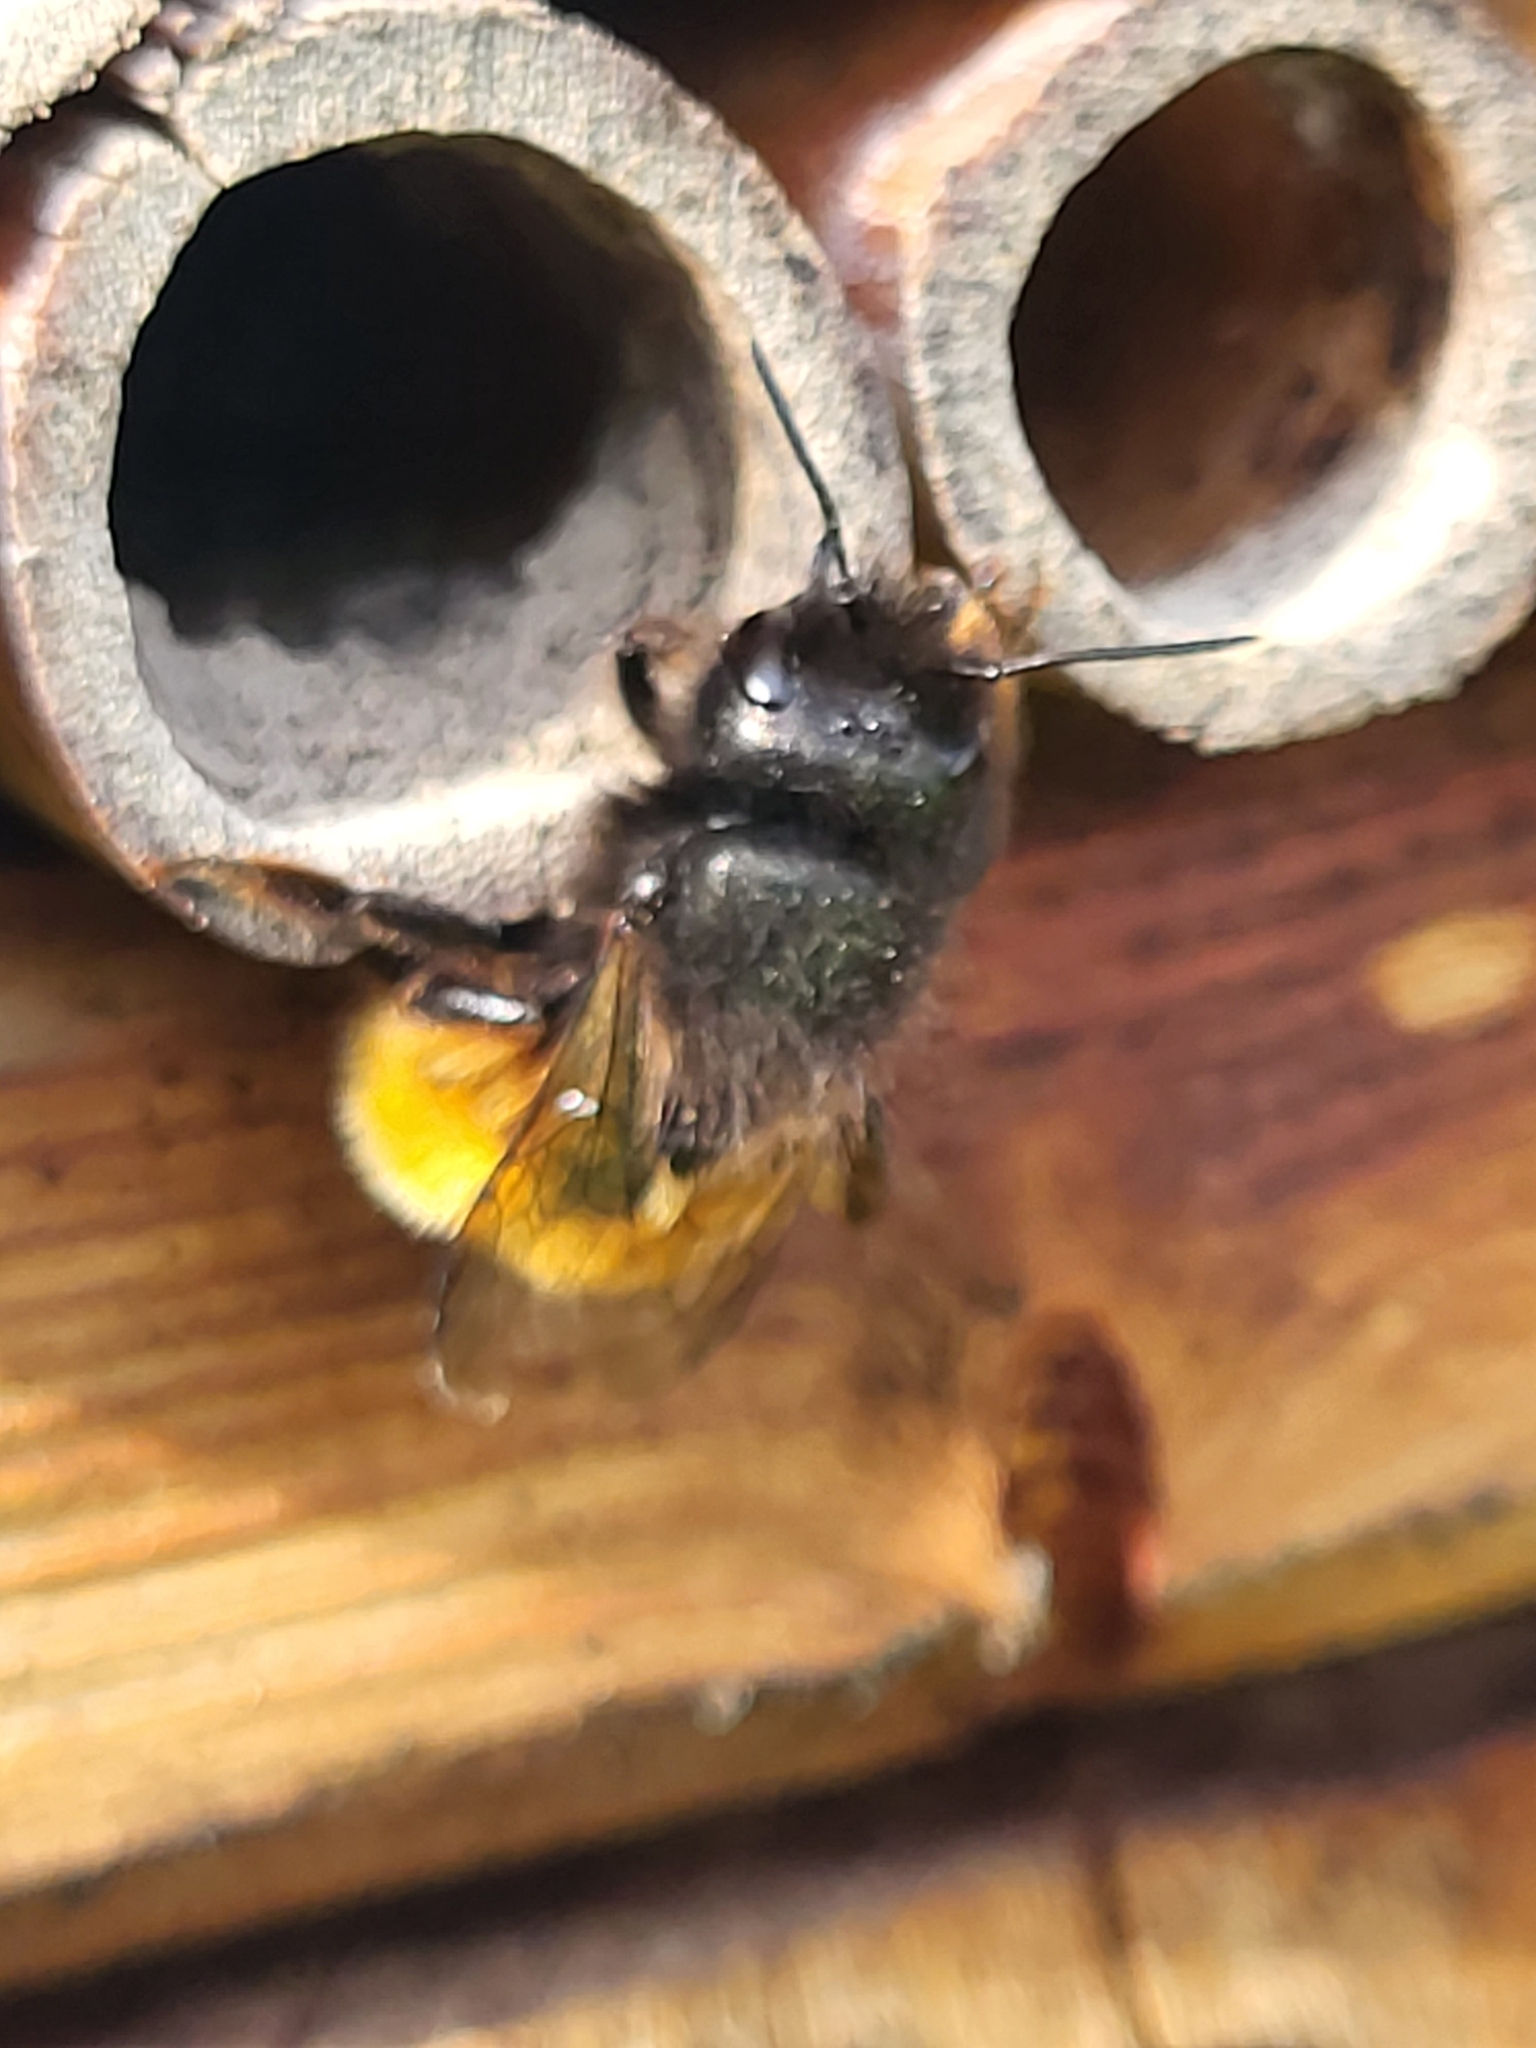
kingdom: Animalia
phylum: Arthropoda
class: Insecta
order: Hymenoptera
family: Megachilidae
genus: Osmia
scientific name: Osmia cornuta
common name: Mason bee
